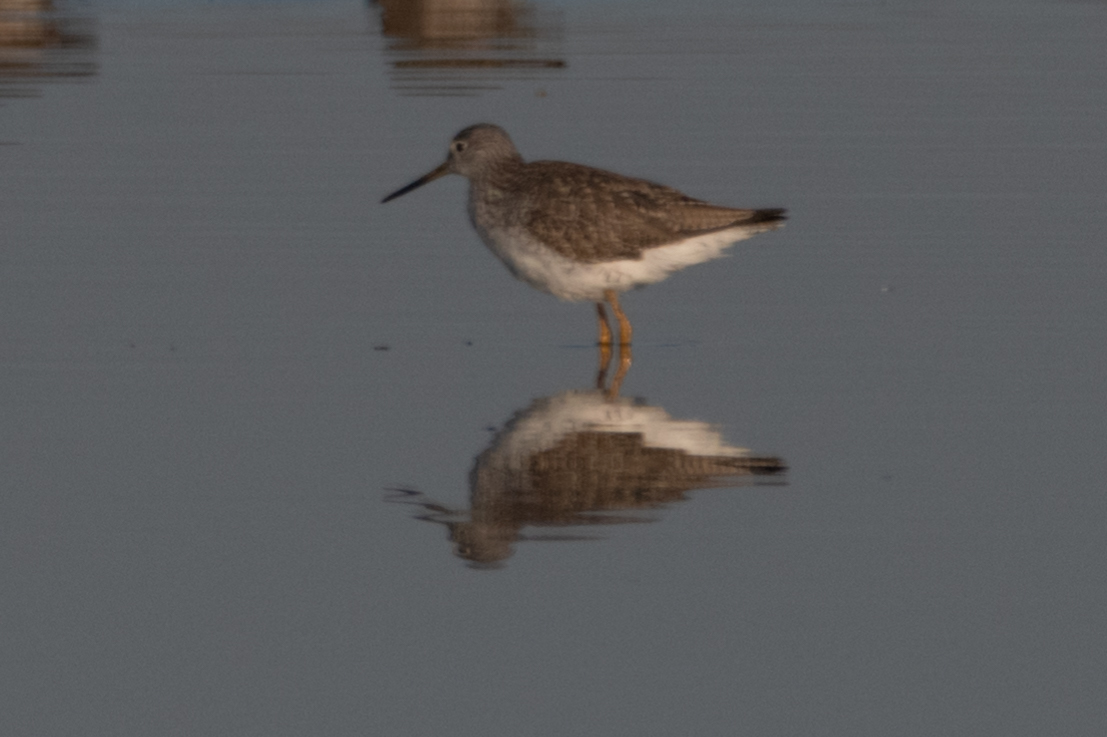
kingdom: Animalia
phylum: Chordata
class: Aves
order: Charadriiformes
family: Scolopacidae
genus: Tringa
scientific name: Tringa melanoleuca
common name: Greater yellowlegs
